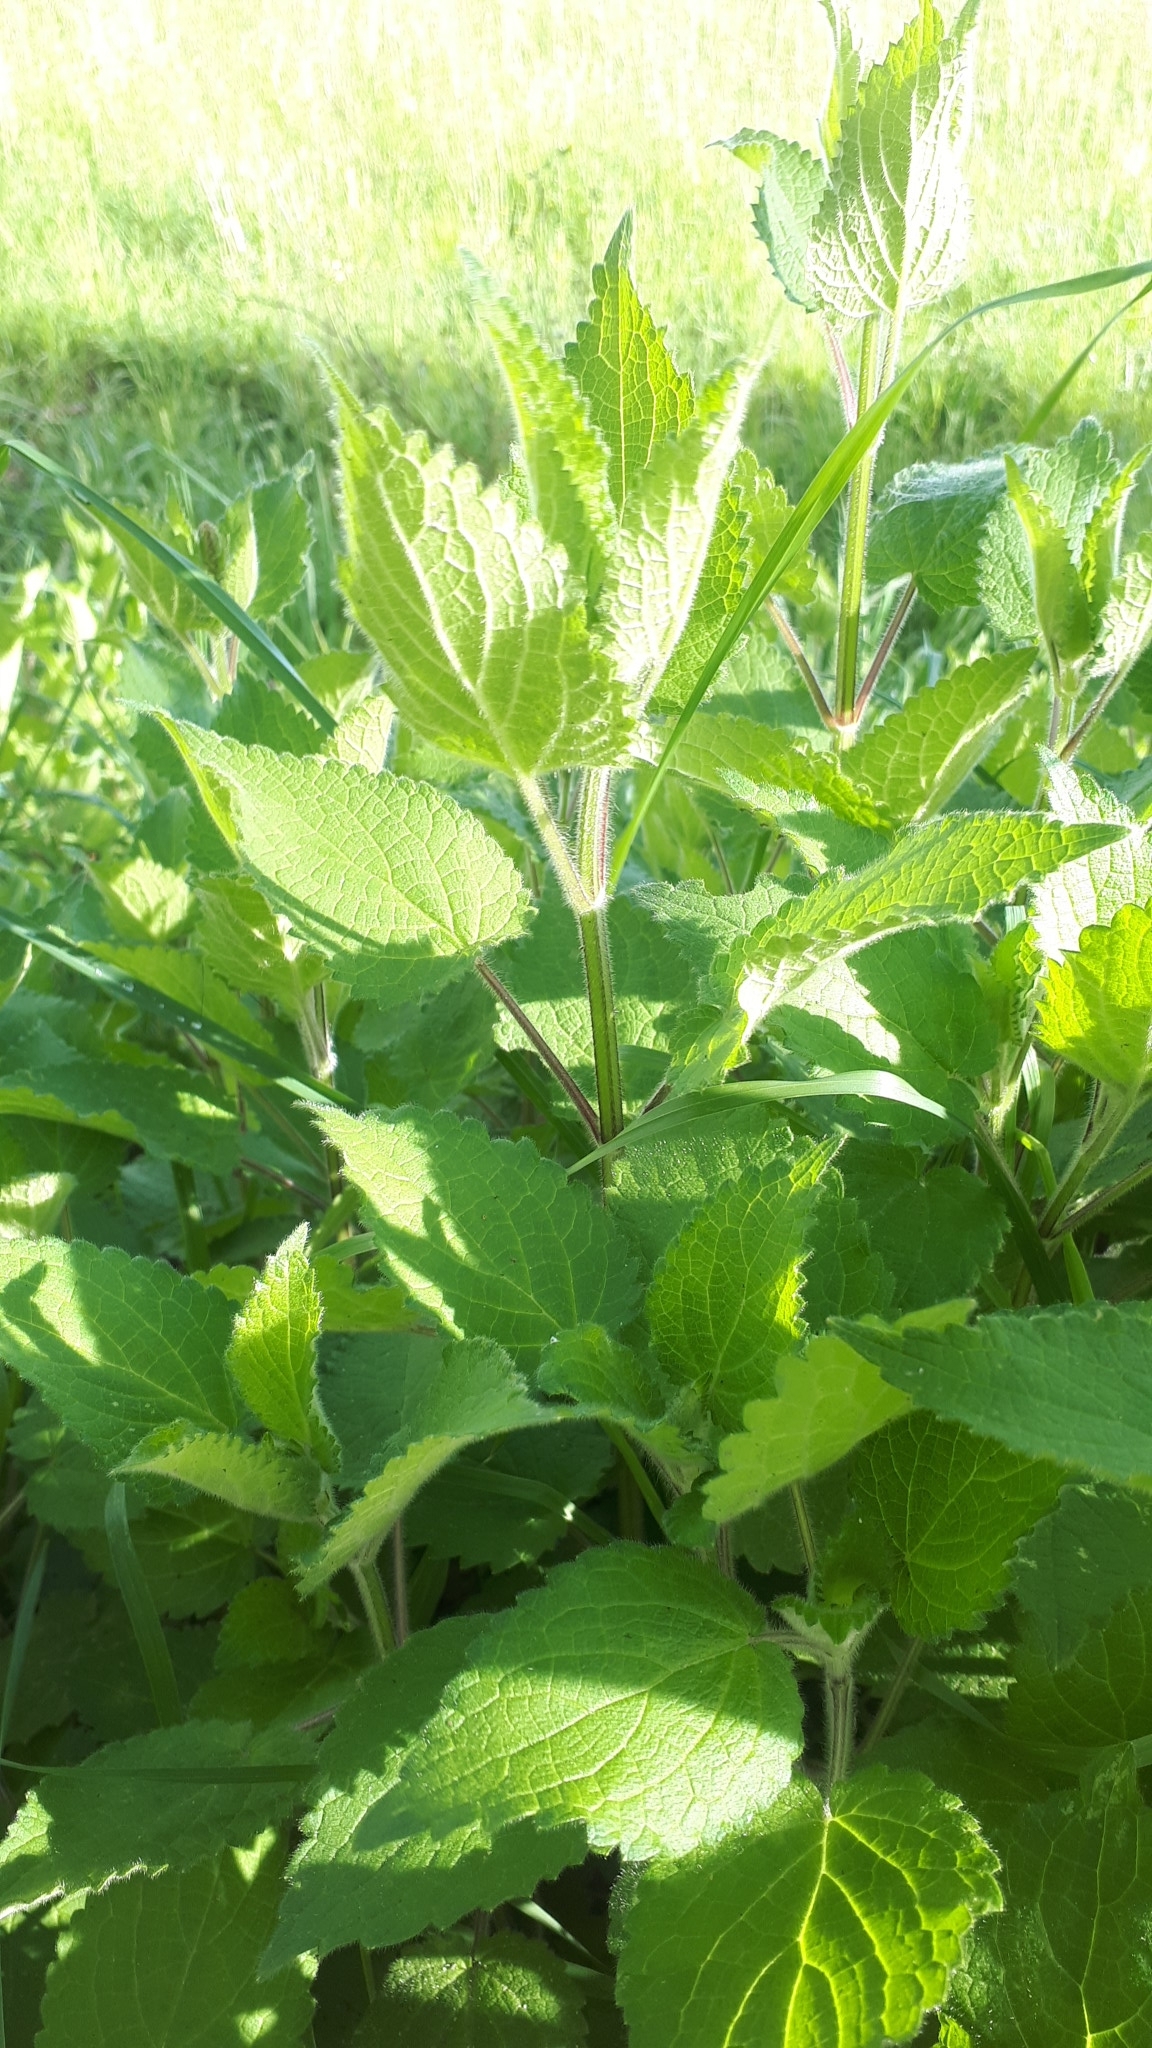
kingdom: Plantae
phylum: Tracheophyta
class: Magnoliopsida
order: Lamiales
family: Lamiaceae
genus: Stachys
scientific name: Stachys sylvatica
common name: Hedge woundwort
